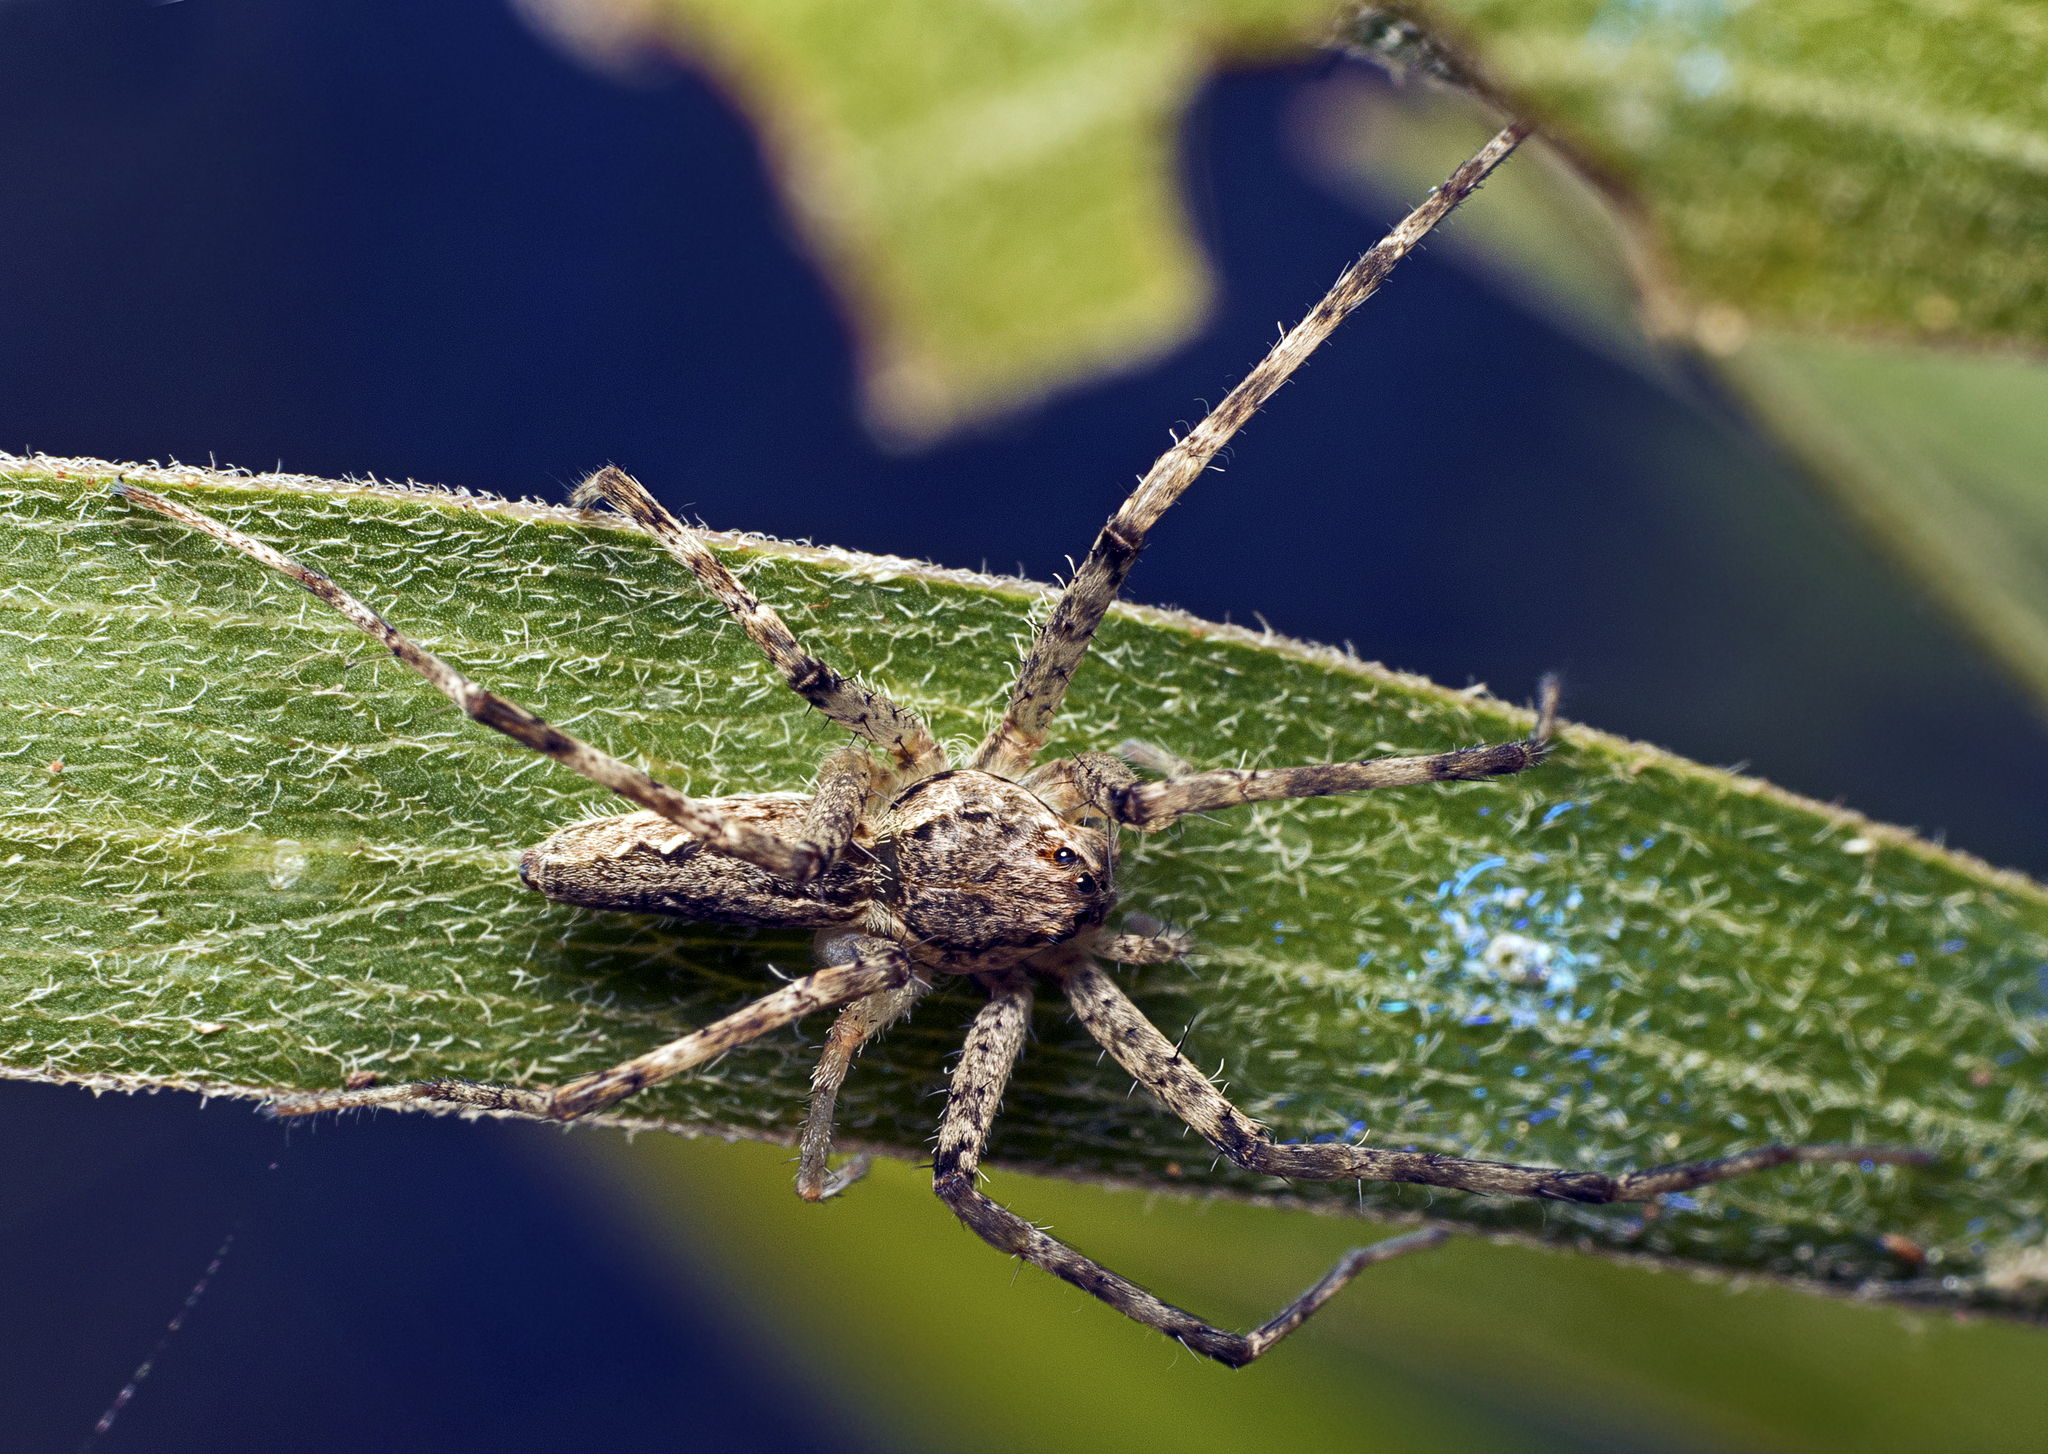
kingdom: Animalia
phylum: Arthropoda
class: Arachnida
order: Araneae
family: Pisauridae
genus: Megadolomedes
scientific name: Megadolomedes trux
